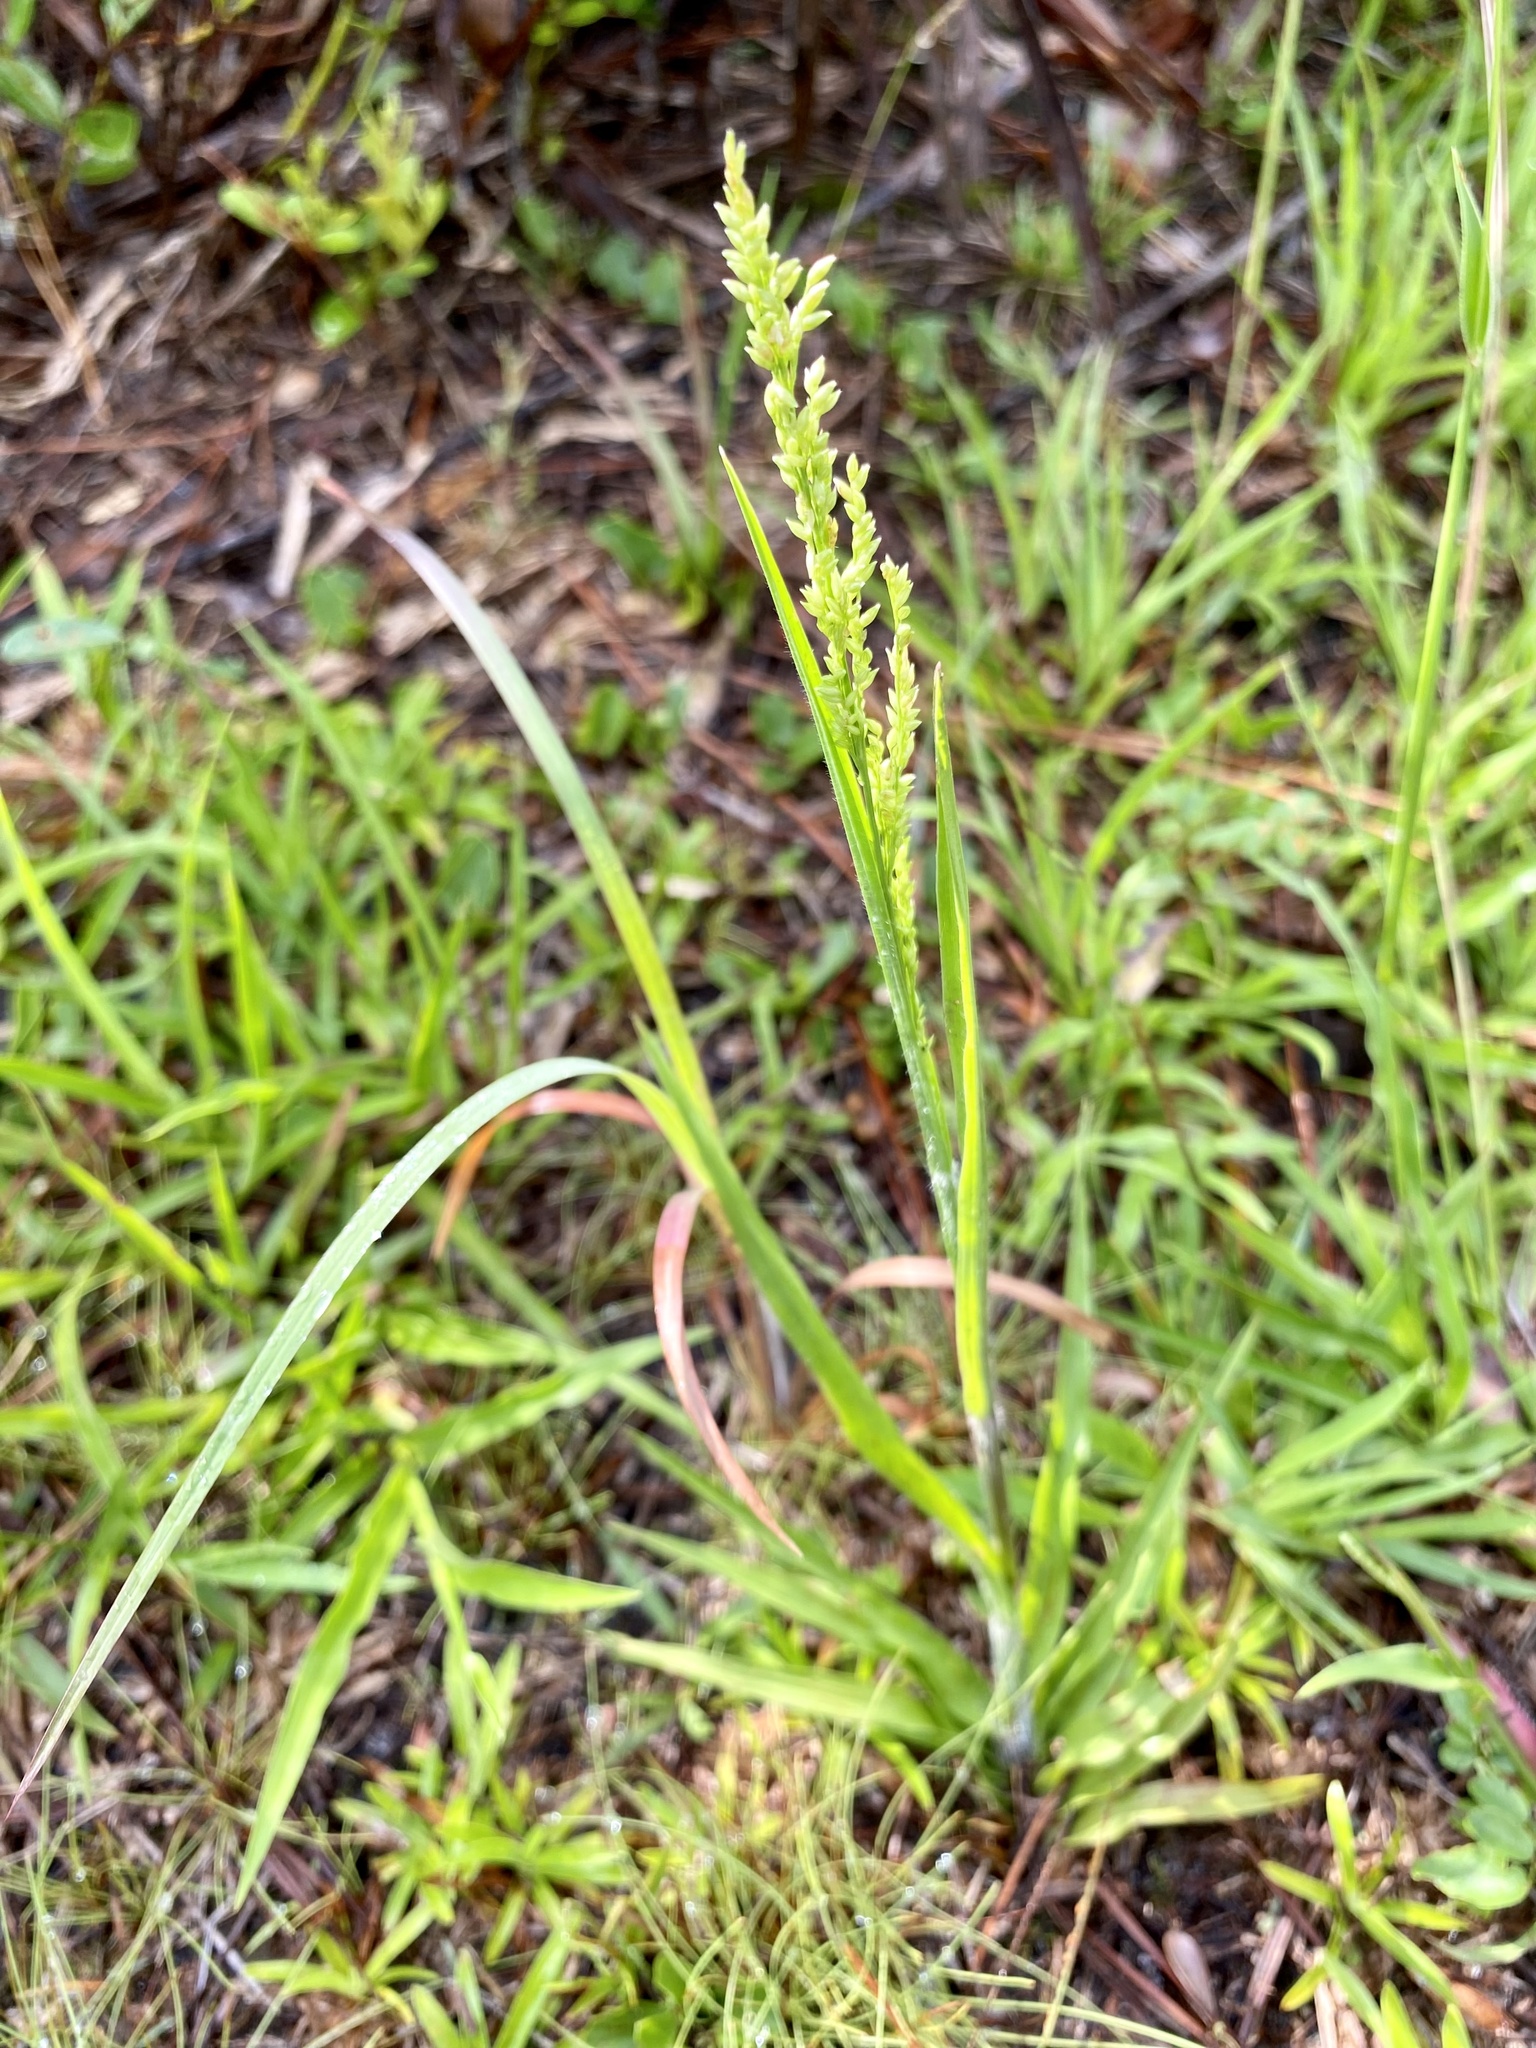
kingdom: Plantae
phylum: Tracheophyta
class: Liliopsida
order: Poales
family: Poaceae
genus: Coleataenia
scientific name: Coleataenia anceps
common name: Beaked panic grass
